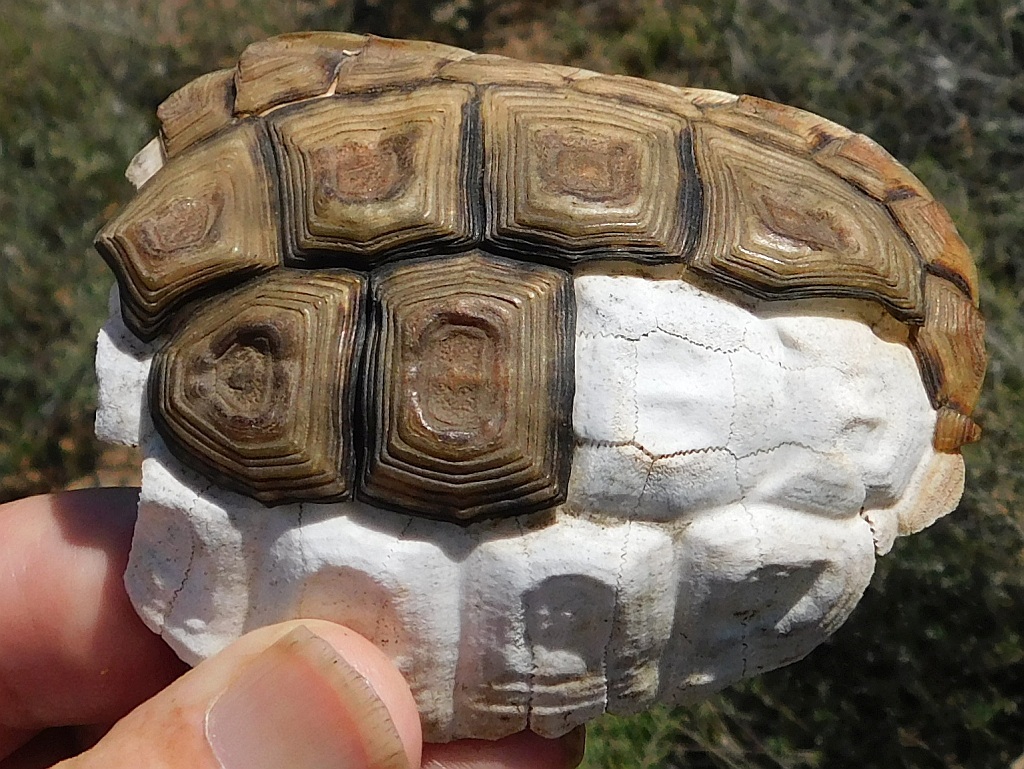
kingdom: Animalia
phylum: Chordata
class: Testudines
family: Testudinidae
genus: Homopus
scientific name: Homopus areolatus
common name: Parrot-beaked tortoise
